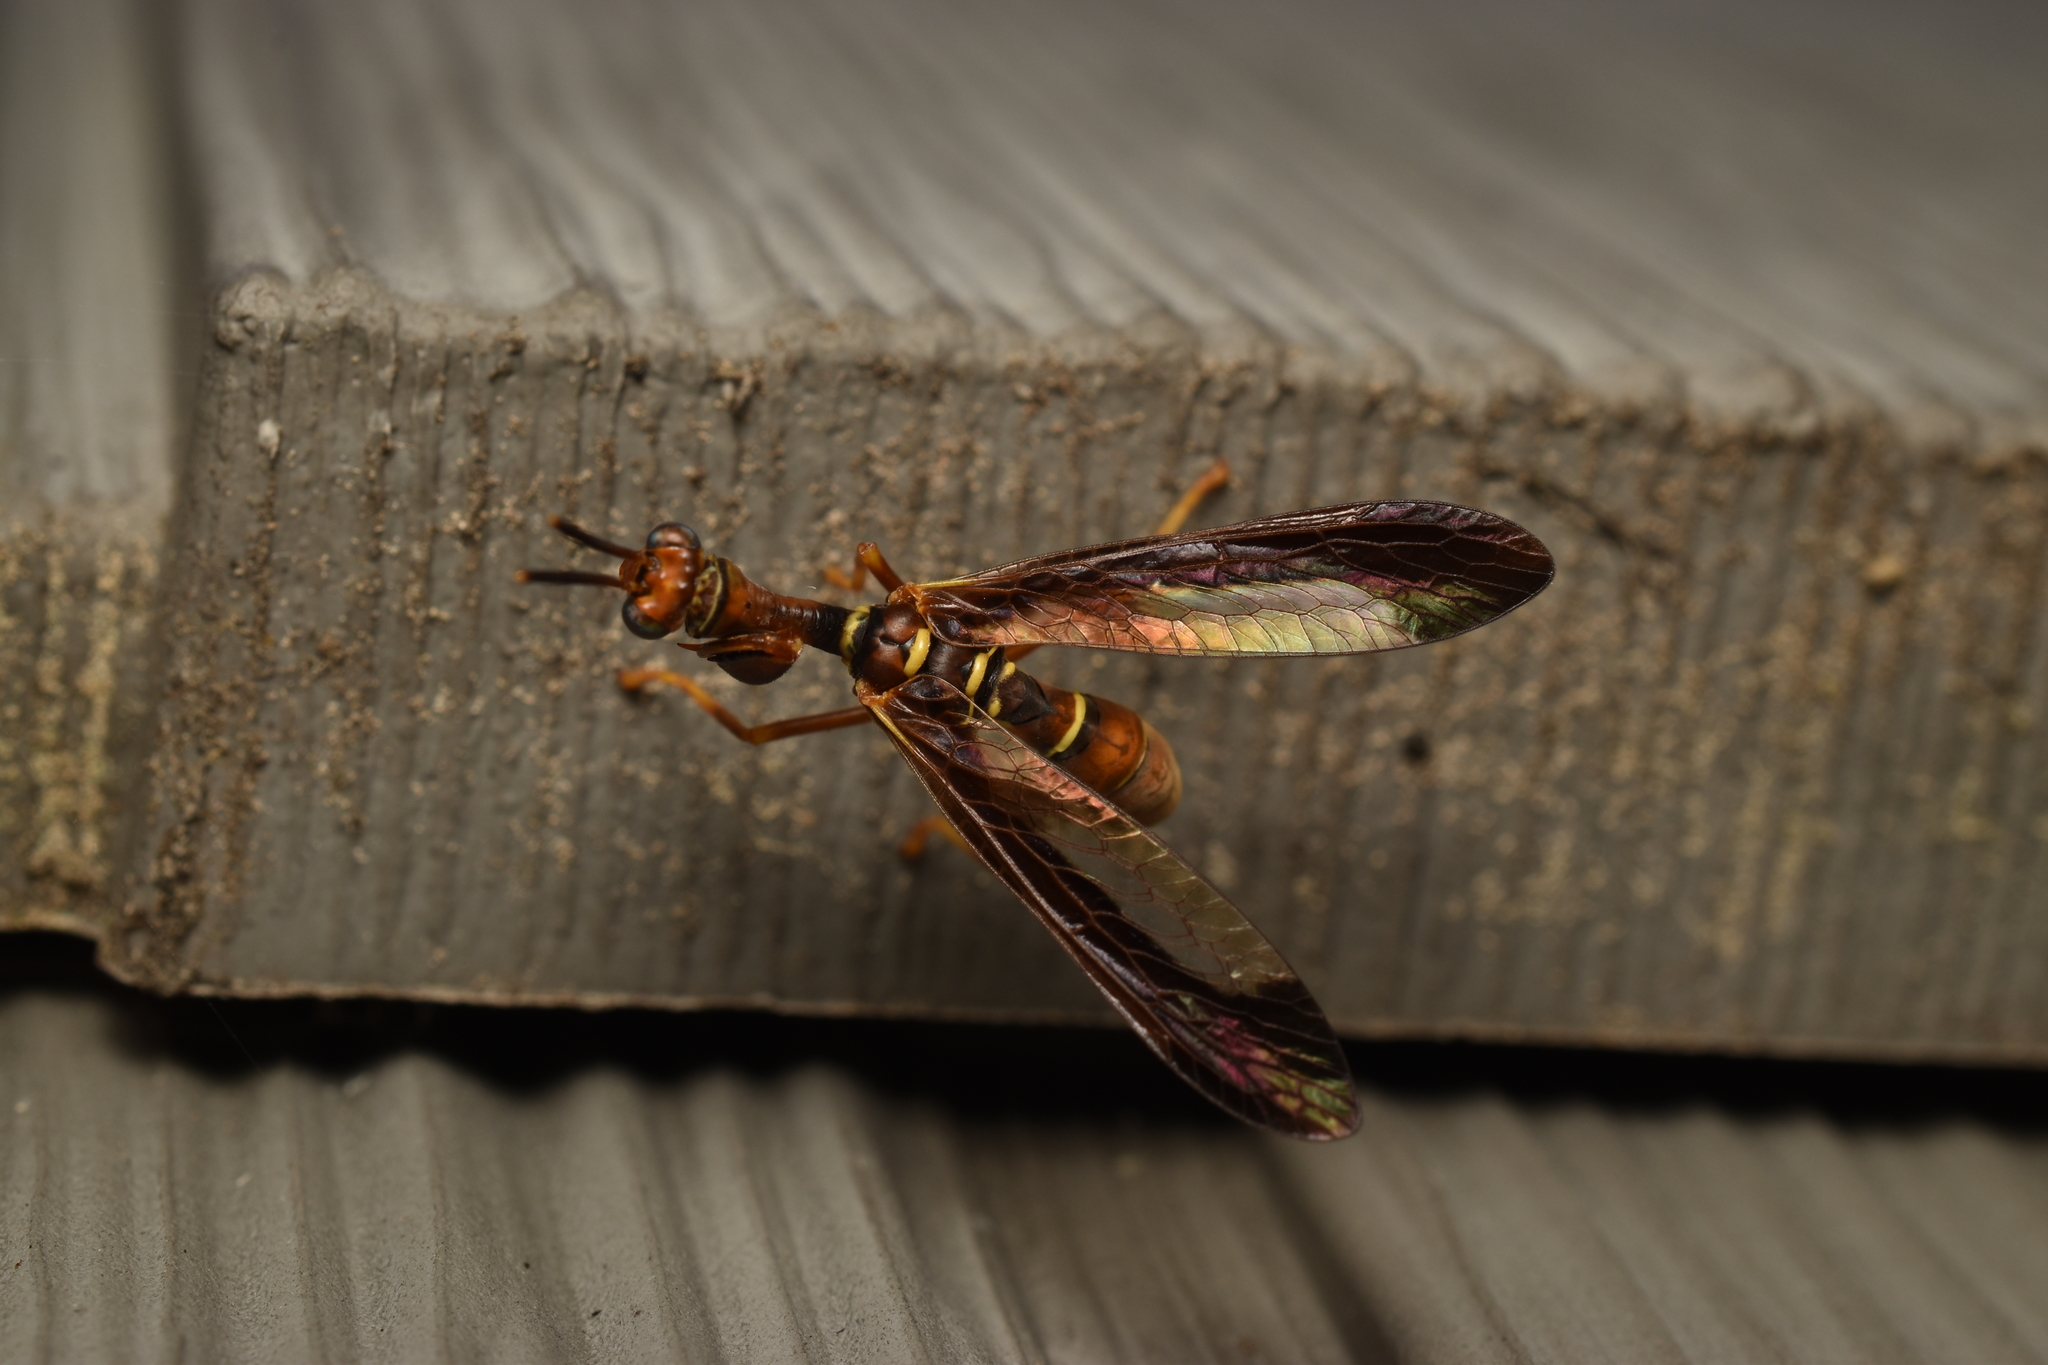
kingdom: Animalia
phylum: Arthropoda
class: Insecta
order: Neuroptera
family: Mantispidae
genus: Climaciella
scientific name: Climaciella brunnea
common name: Brown wasp mantidfly
